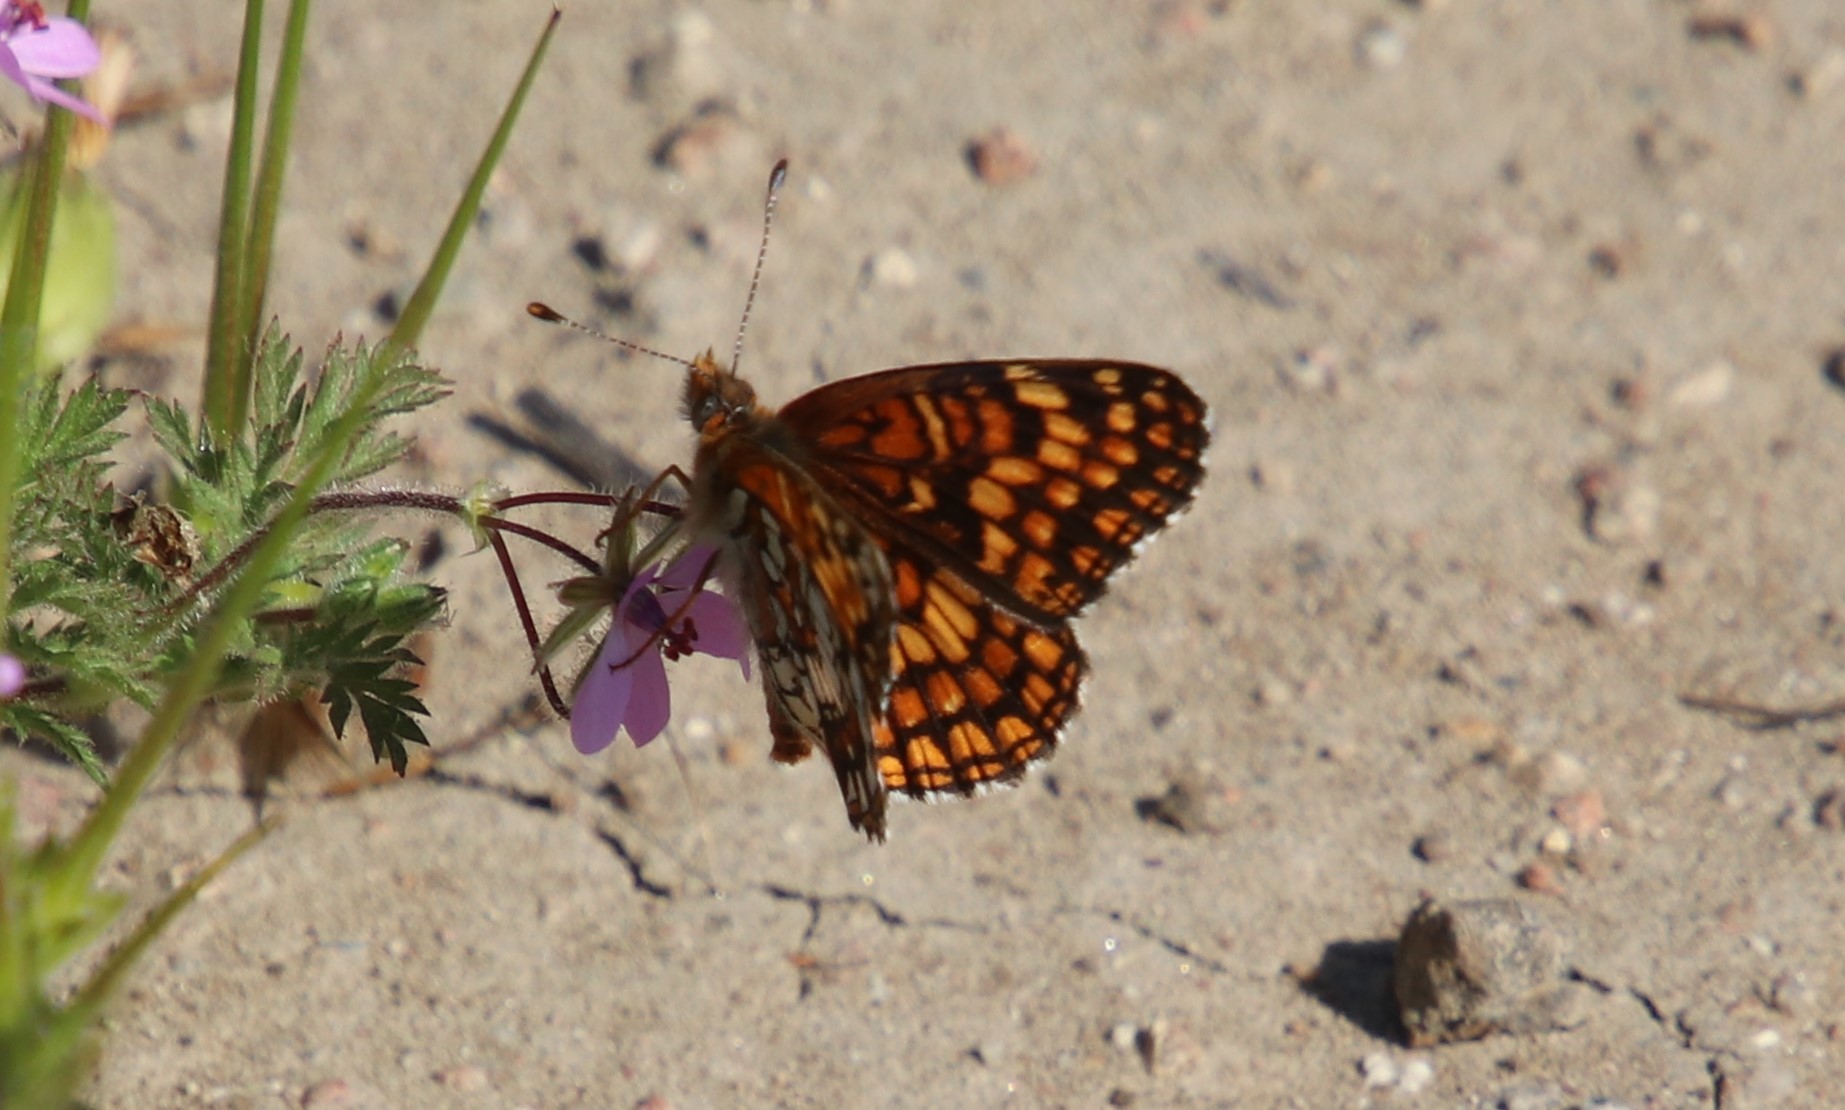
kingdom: Animalia
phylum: Arthropoda
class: Insecta
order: Lepidoptera
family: Nymphalidae
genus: Chlosyne
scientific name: Chlosyne gabbii
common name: Gabb's checkerspot
